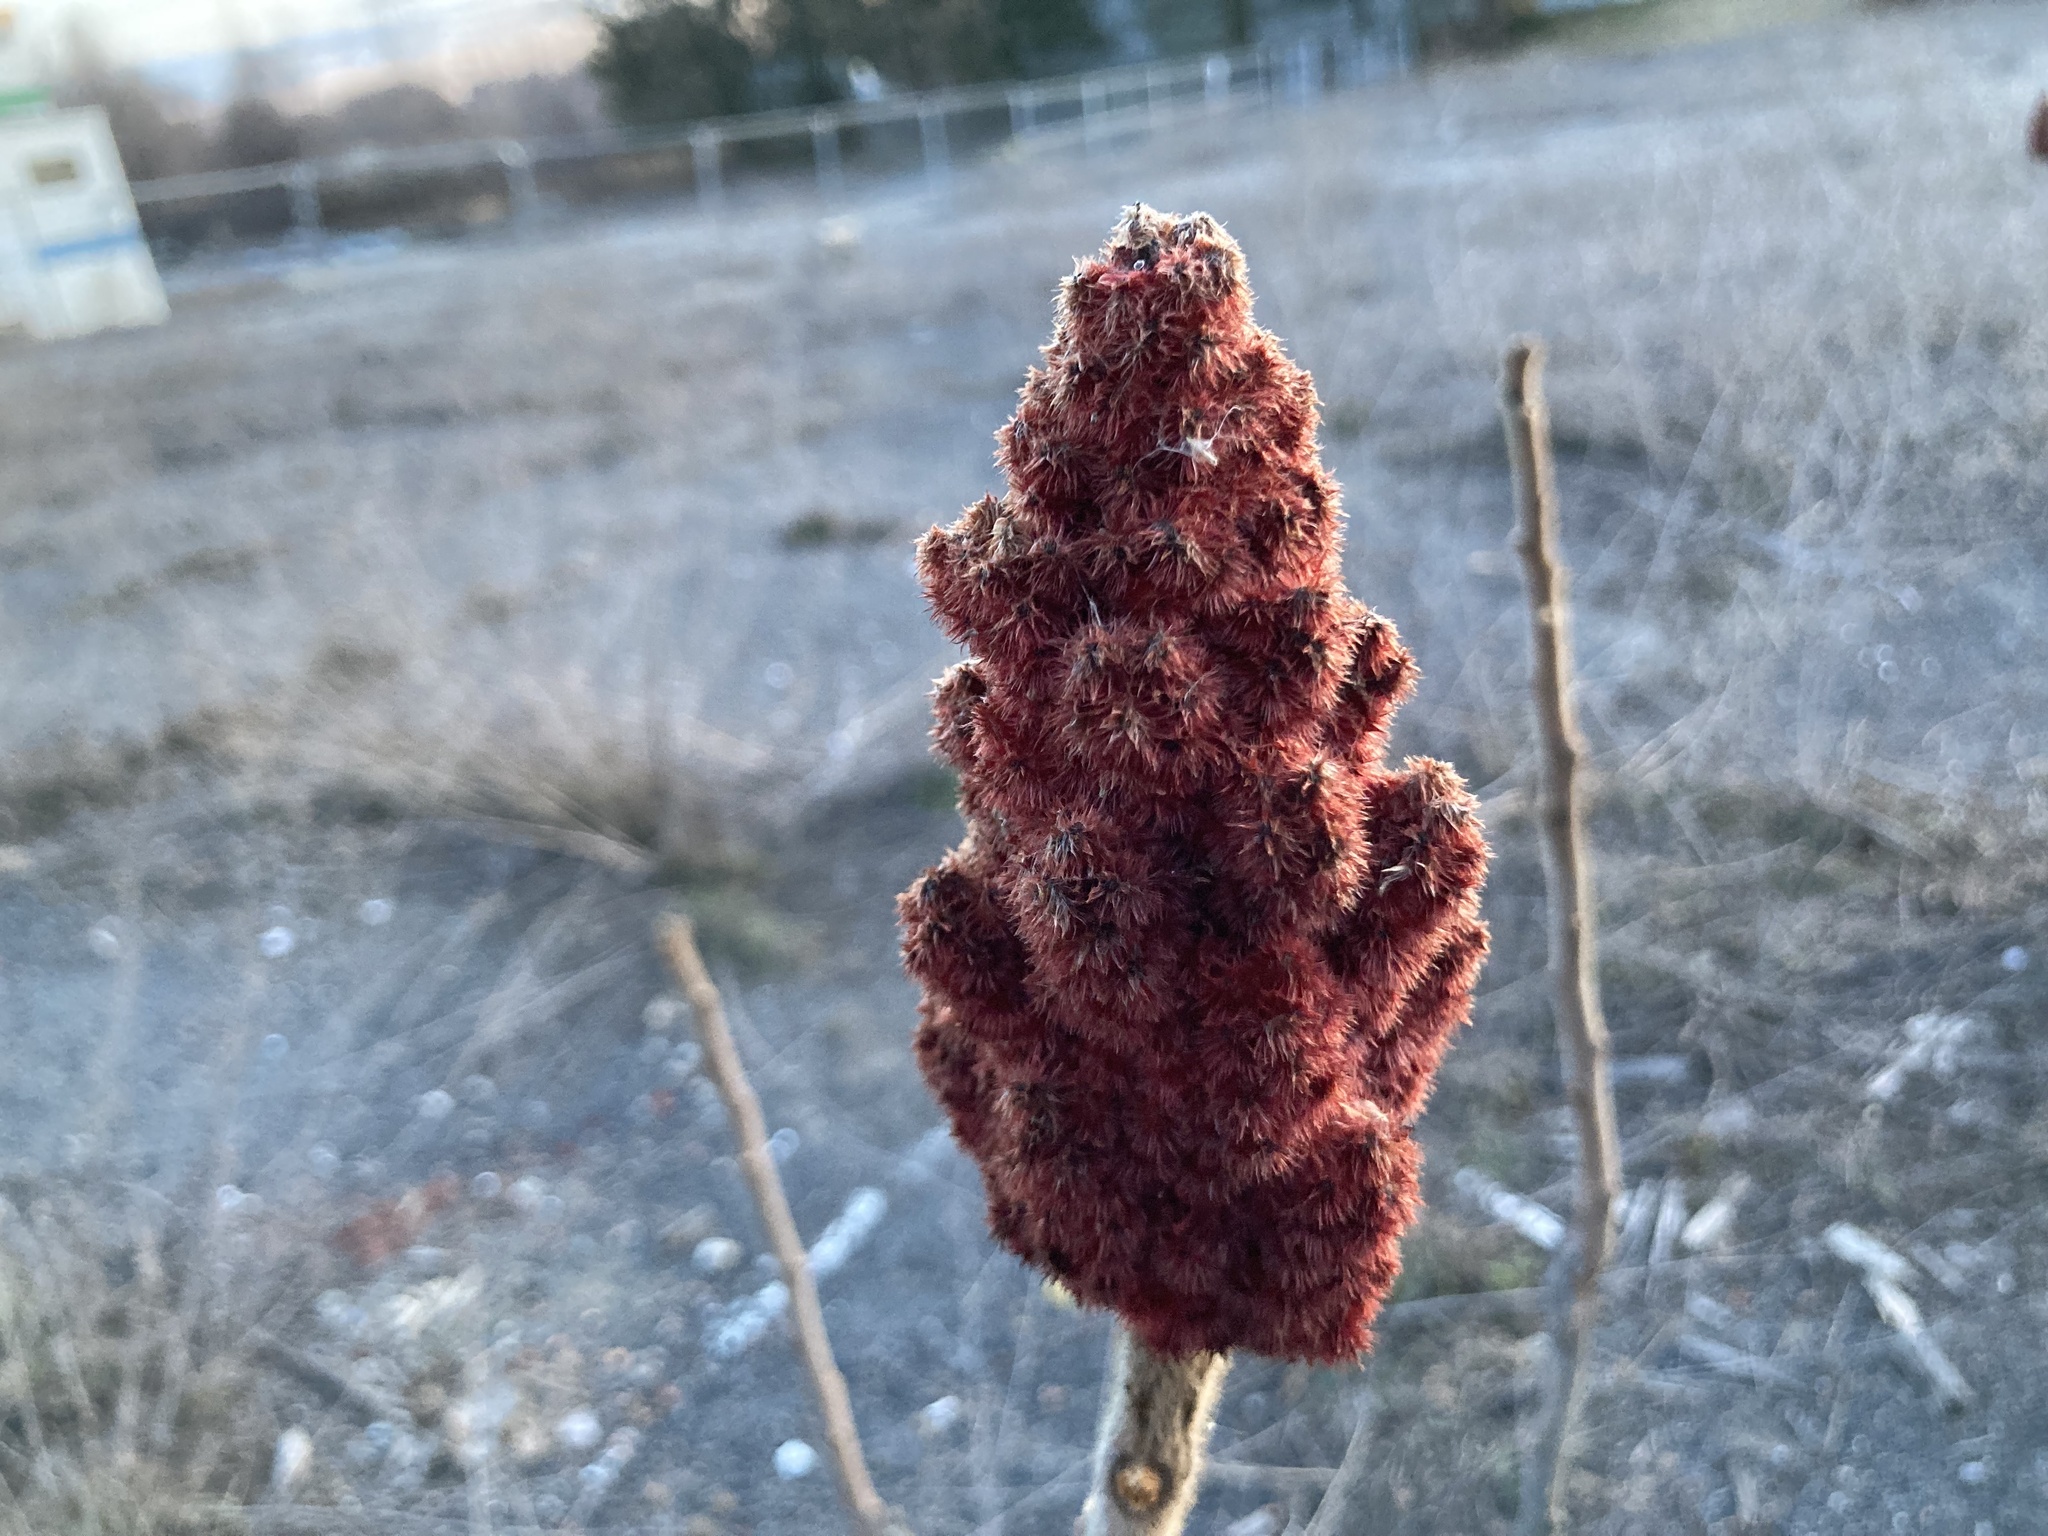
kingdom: Plantae
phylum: Tracheophyta
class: Magnoliopsida
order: Sapindales
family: Anacardiaceae
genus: Rhus
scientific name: Rhus typhina
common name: Staghorn sumac
